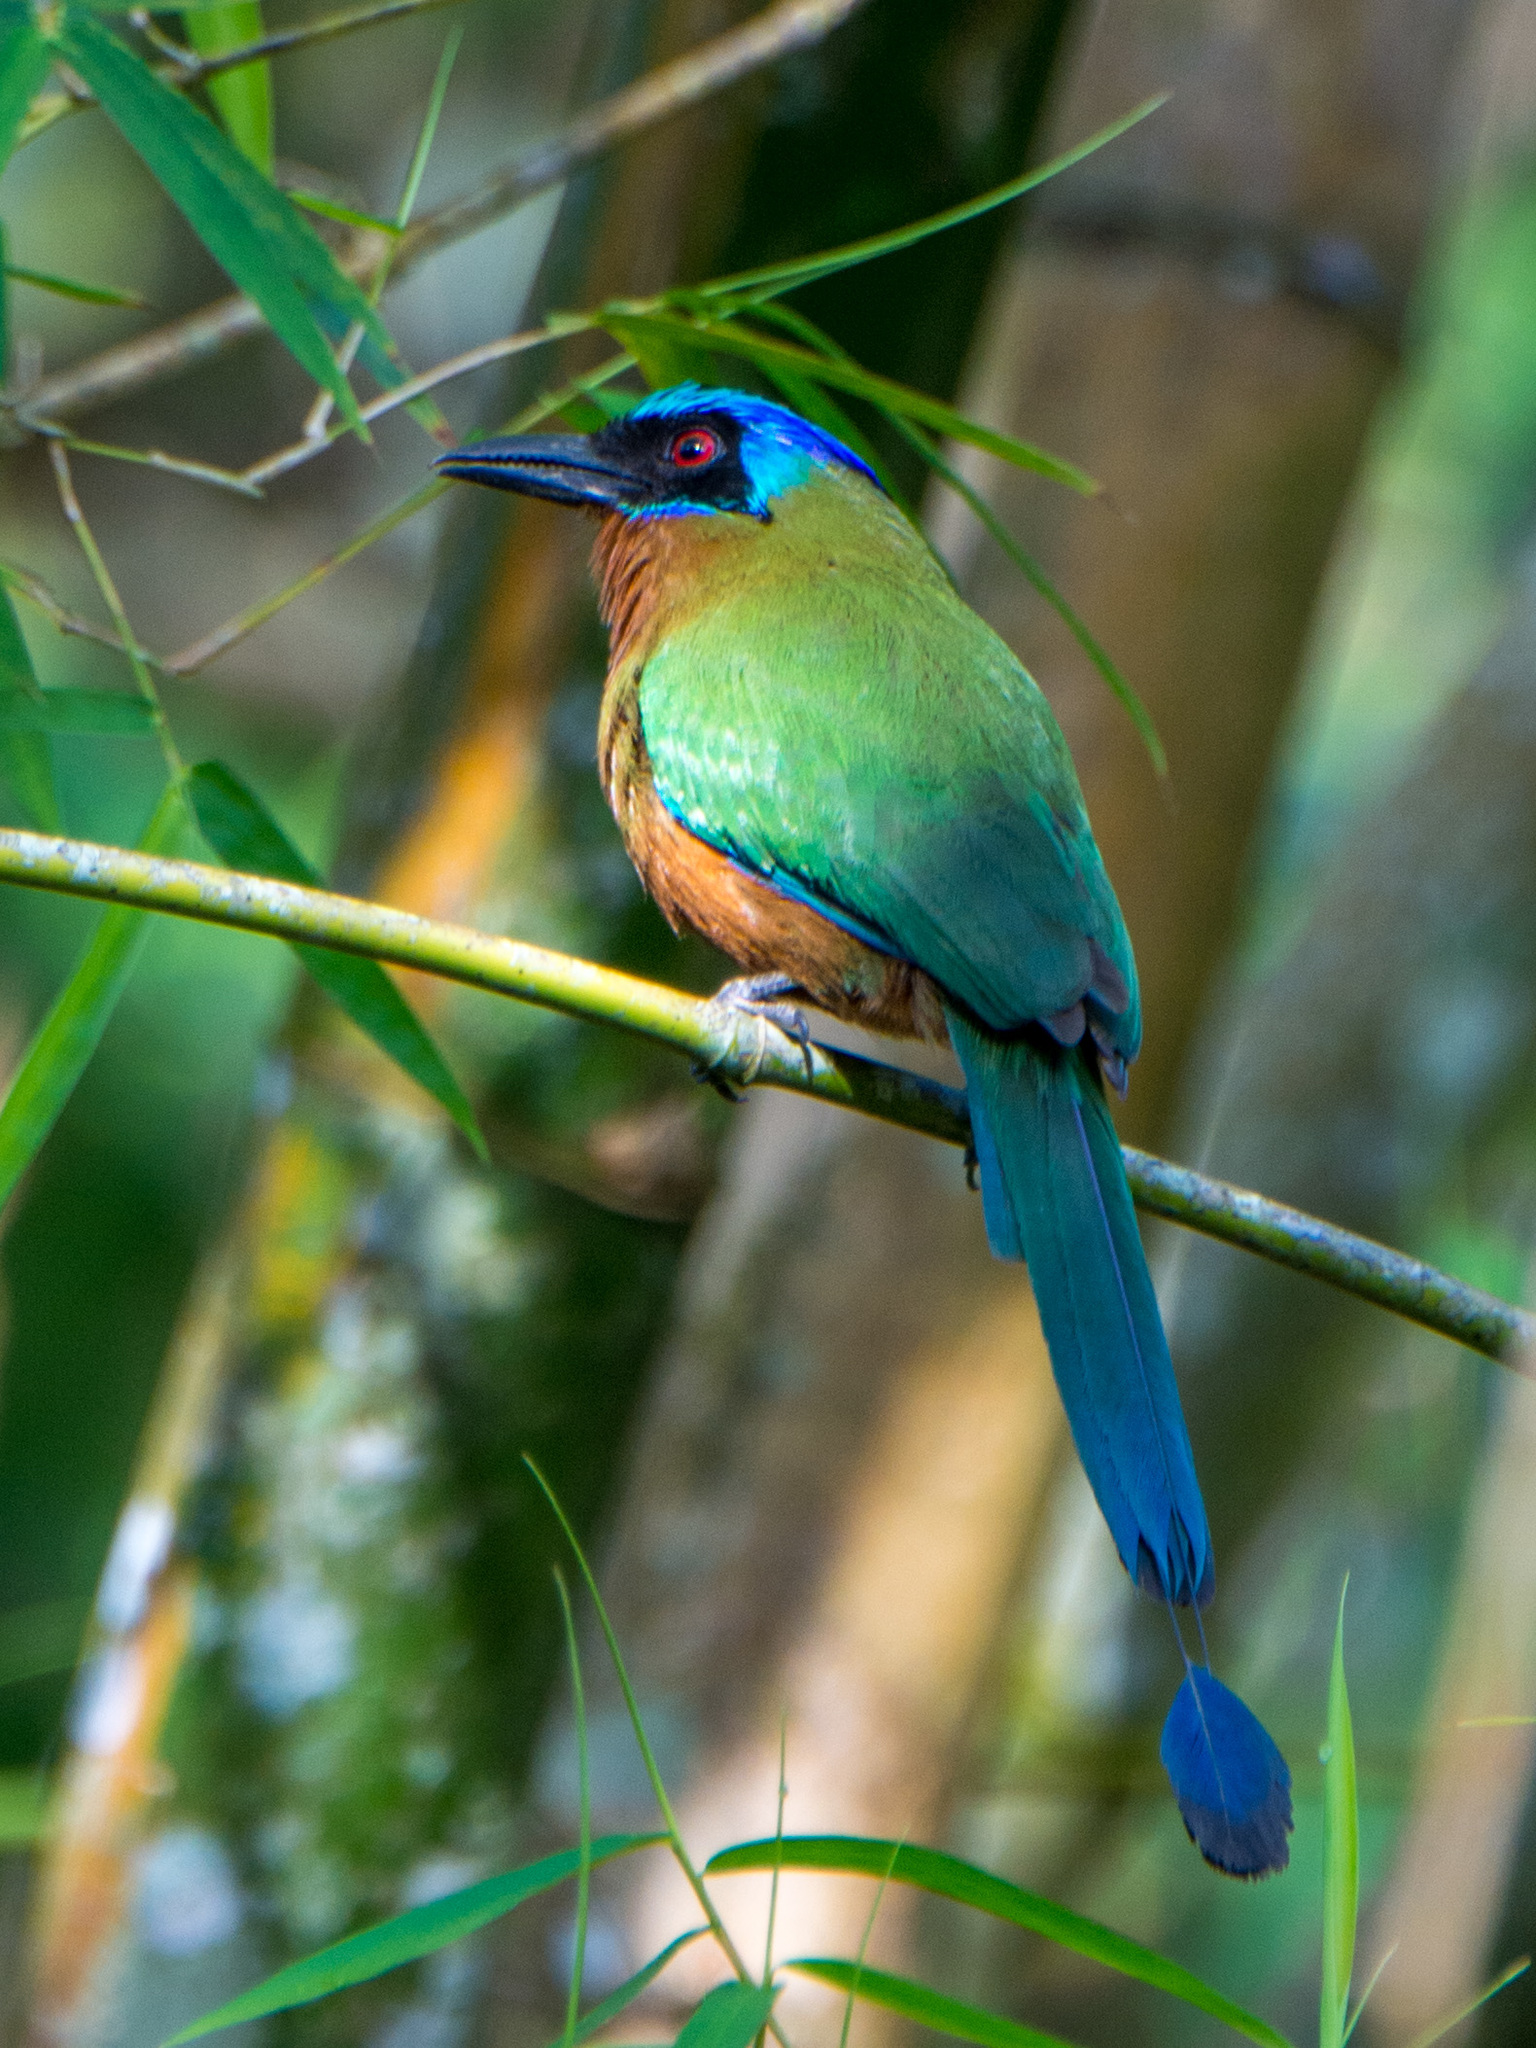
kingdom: Animalia
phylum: Chordata
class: Aves
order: Coraciiformes
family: Momotidae
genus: Momotus
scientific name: Momotus bahamensis
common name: Trinidad motmot
